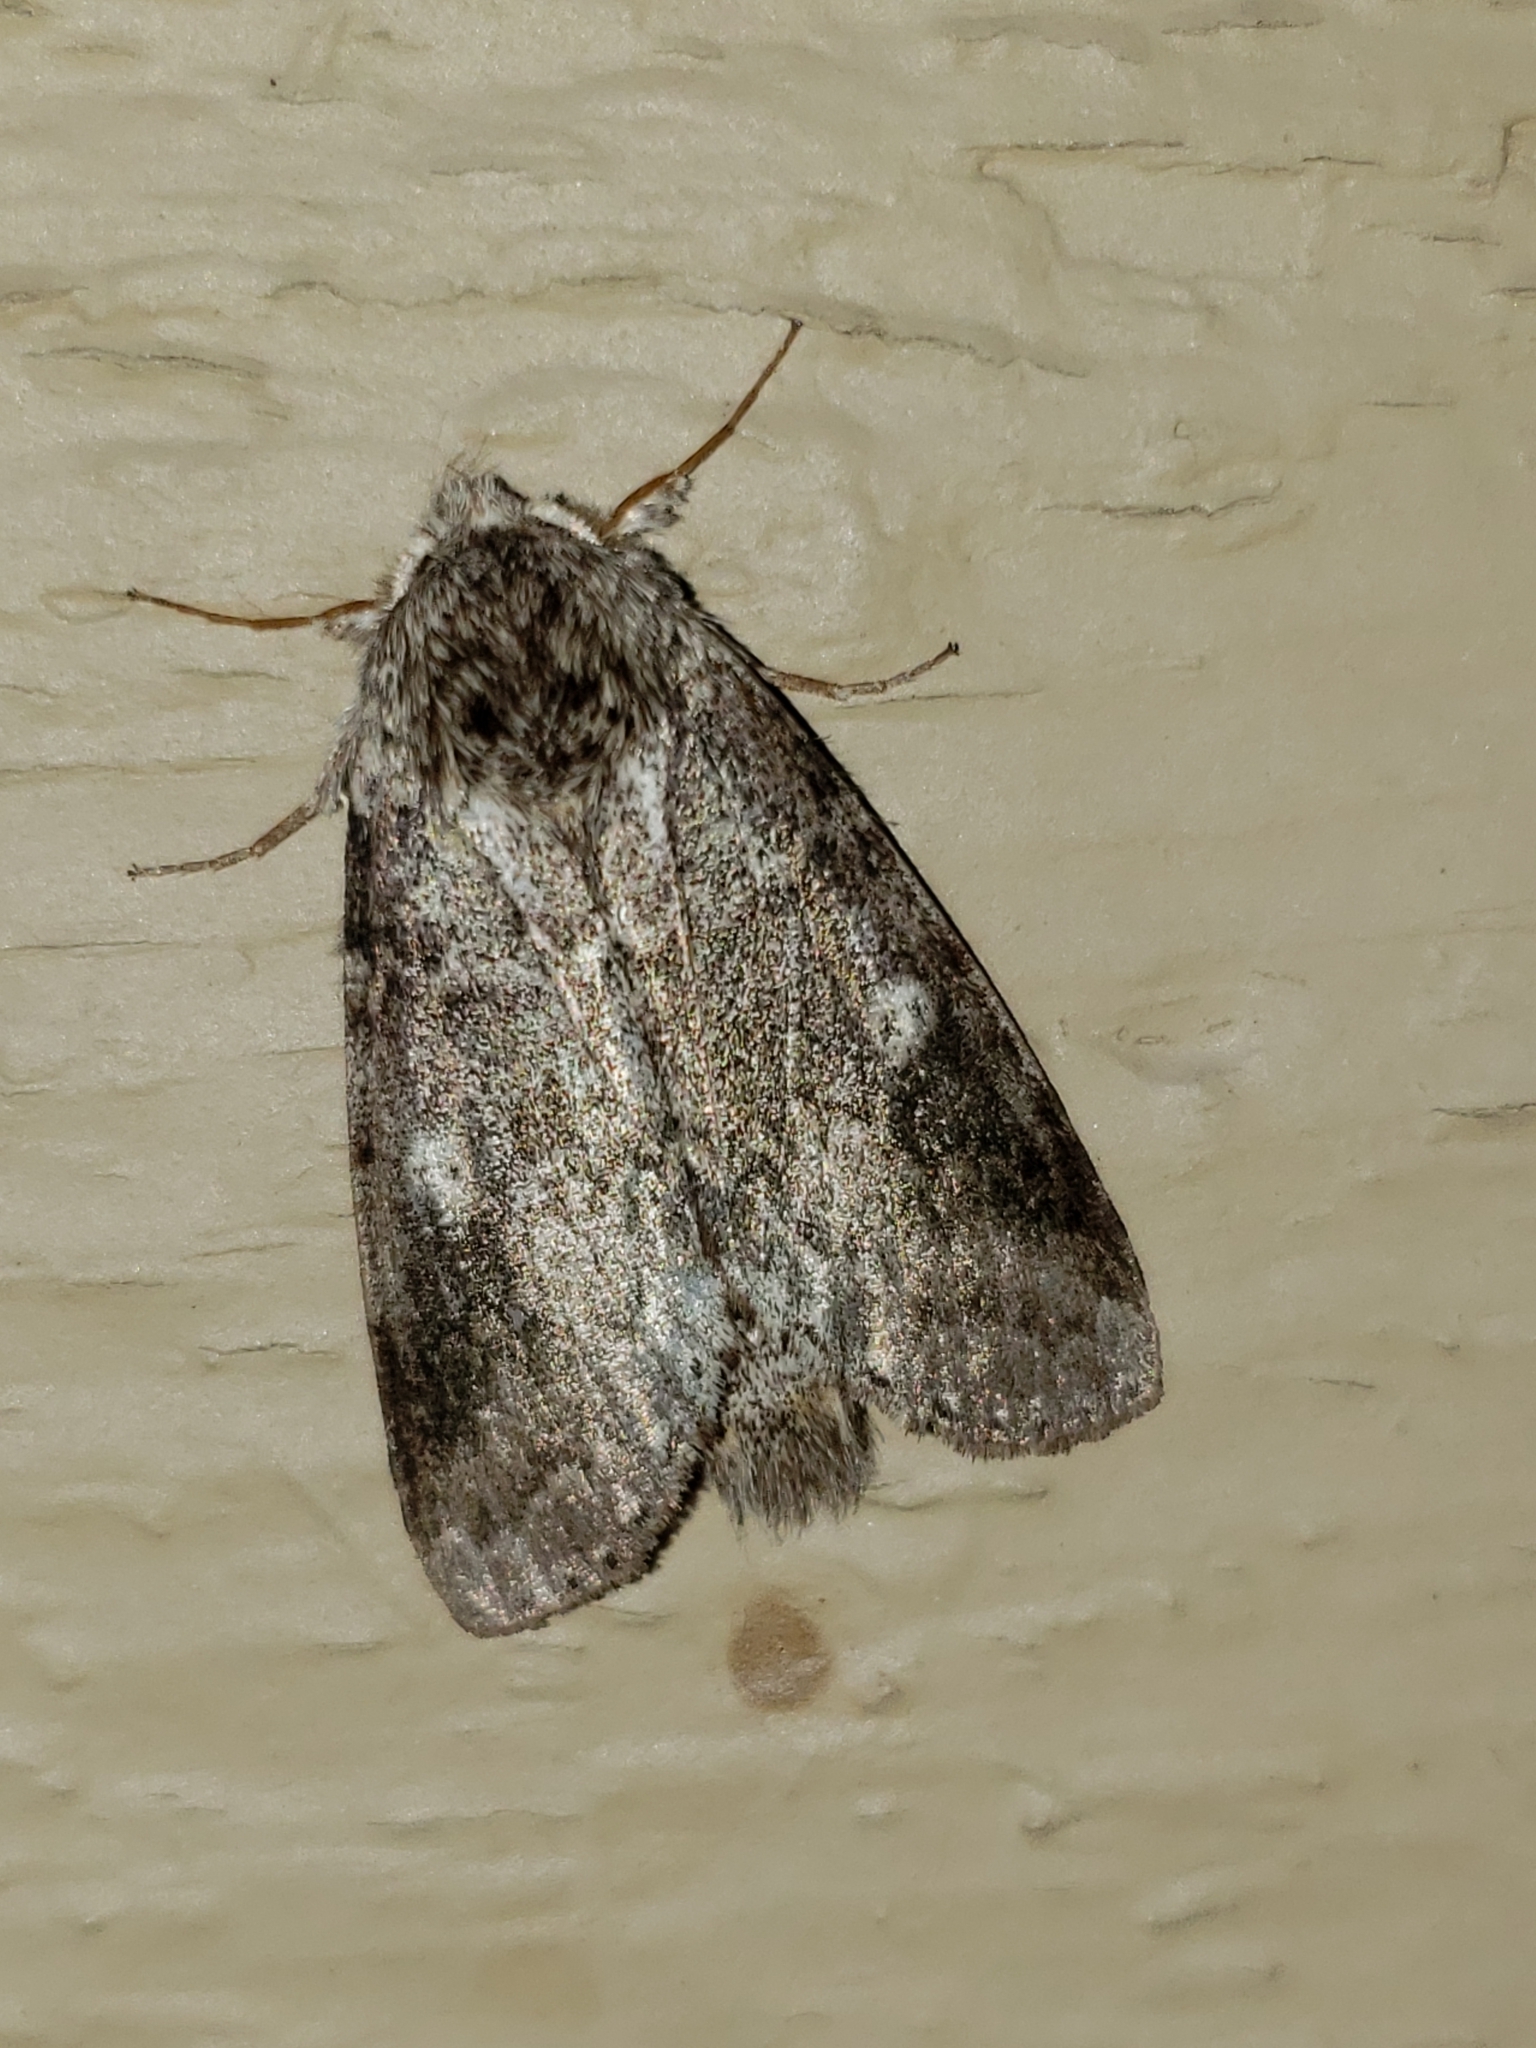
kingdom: Animalia
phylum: Arthropoda
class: Insecta
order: Lepidoptera
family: Notodontidae
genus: Lochmaeus
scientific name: Lochmaeus manteo
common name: Variable oakleaf caterpillar moth
